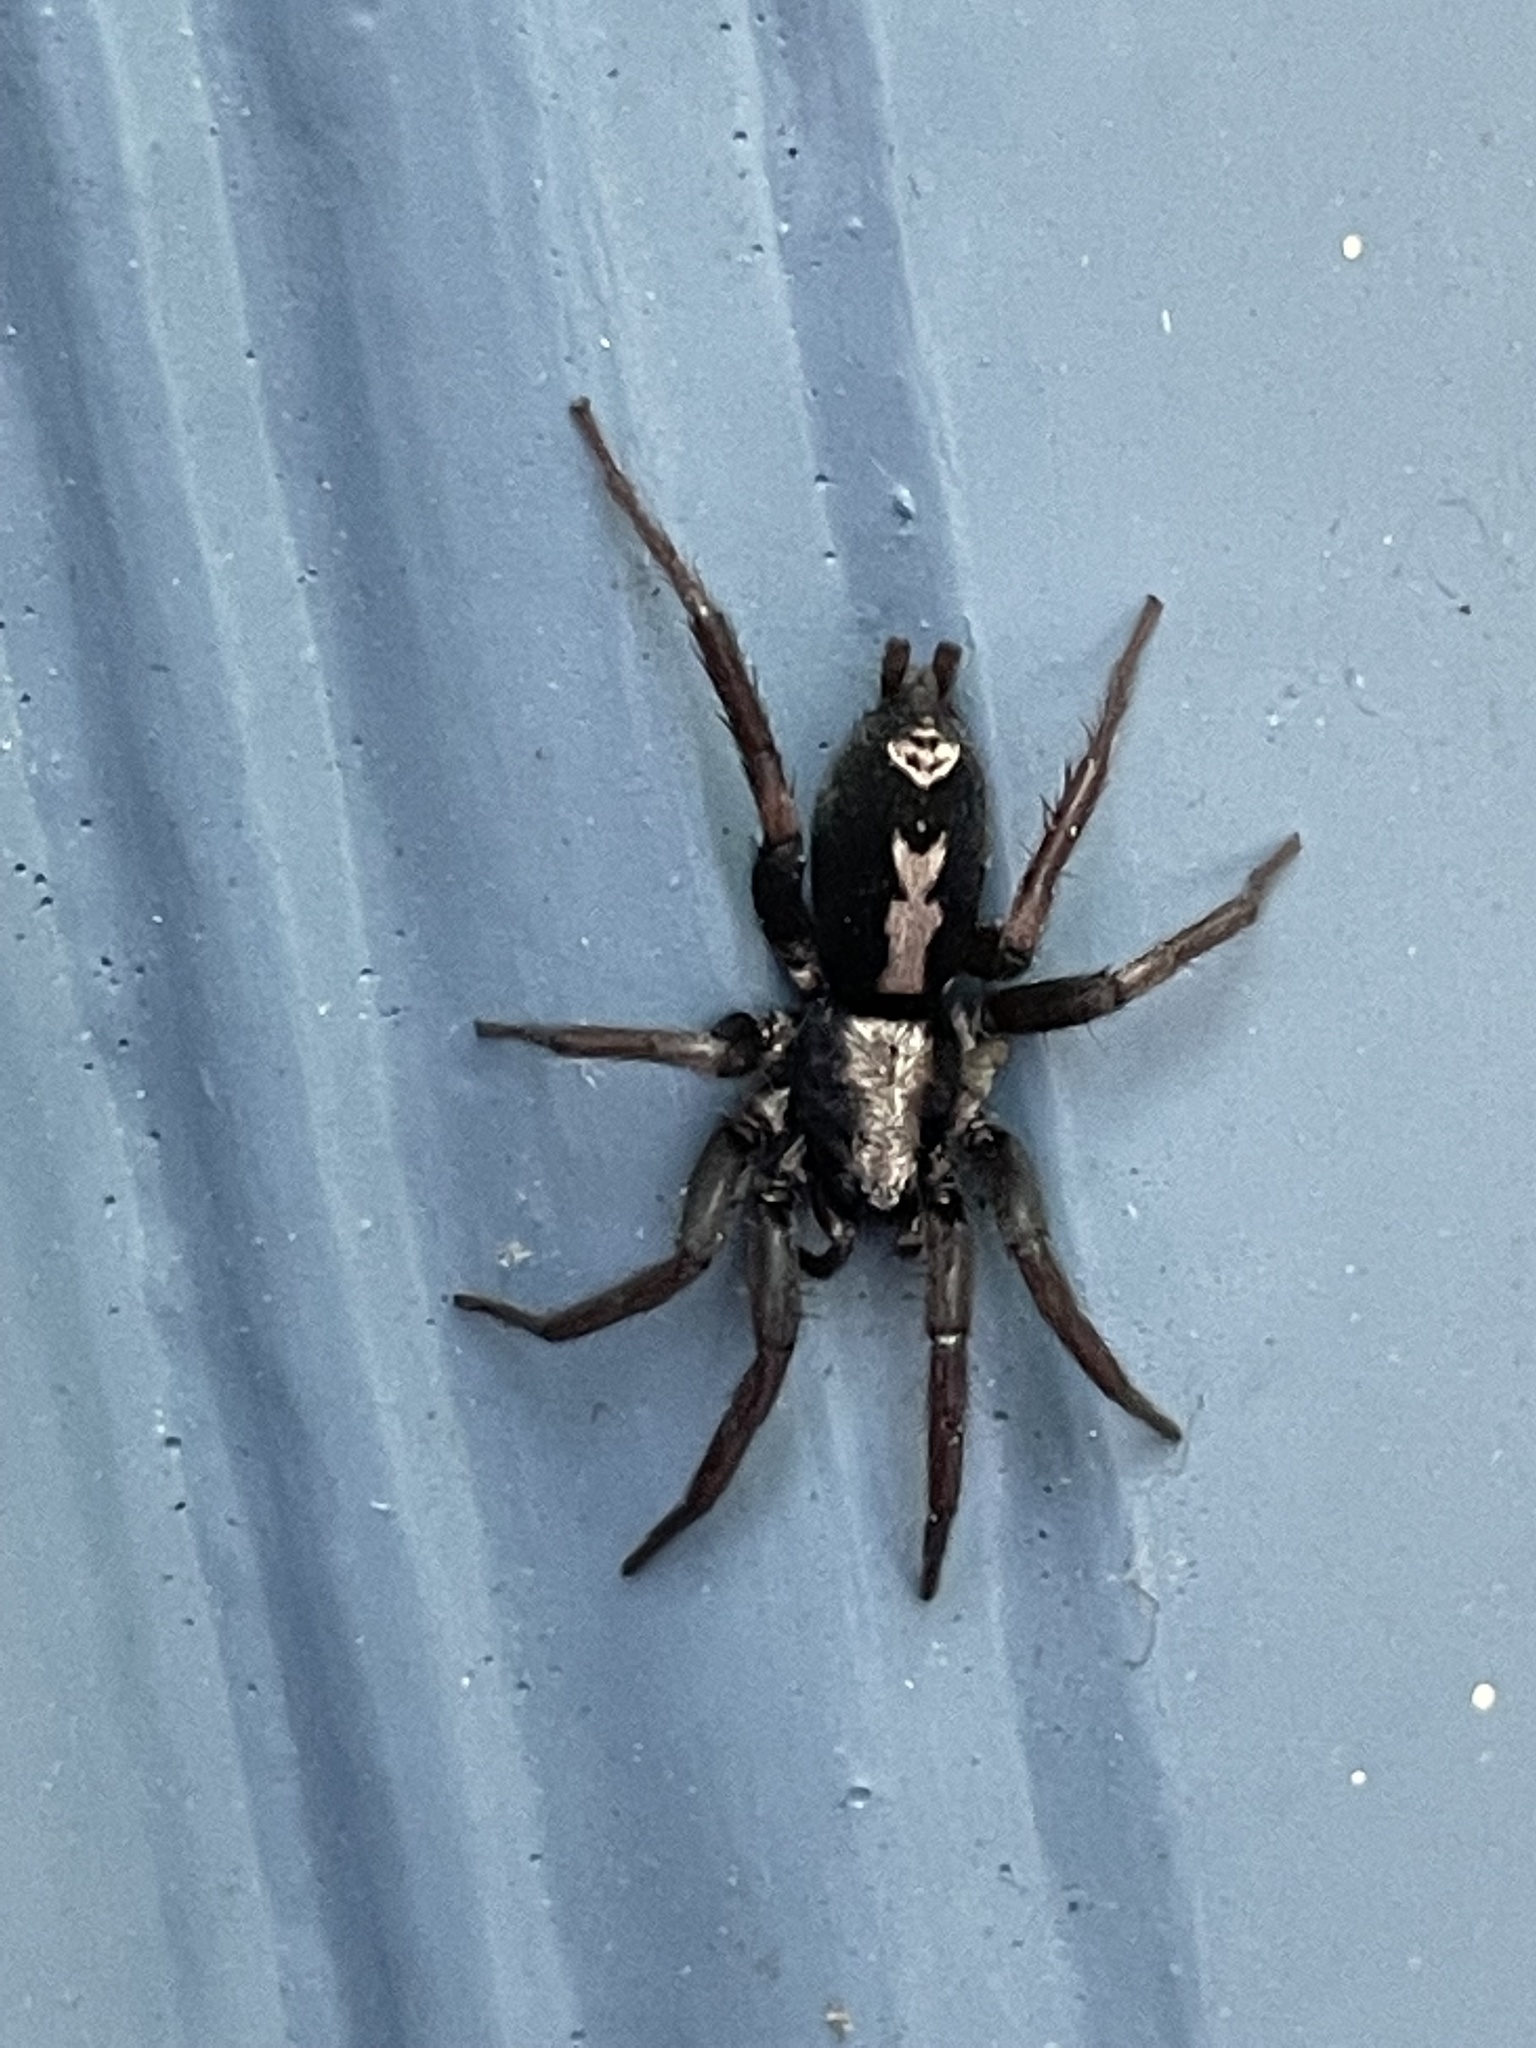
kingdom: Animalia
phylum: Arthropoda
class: Arachnida
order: Araneae
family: Gnaphosidae
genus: Herpyllus
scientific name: Herpyllus ecclesiasticus
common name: Eastern parson spider
